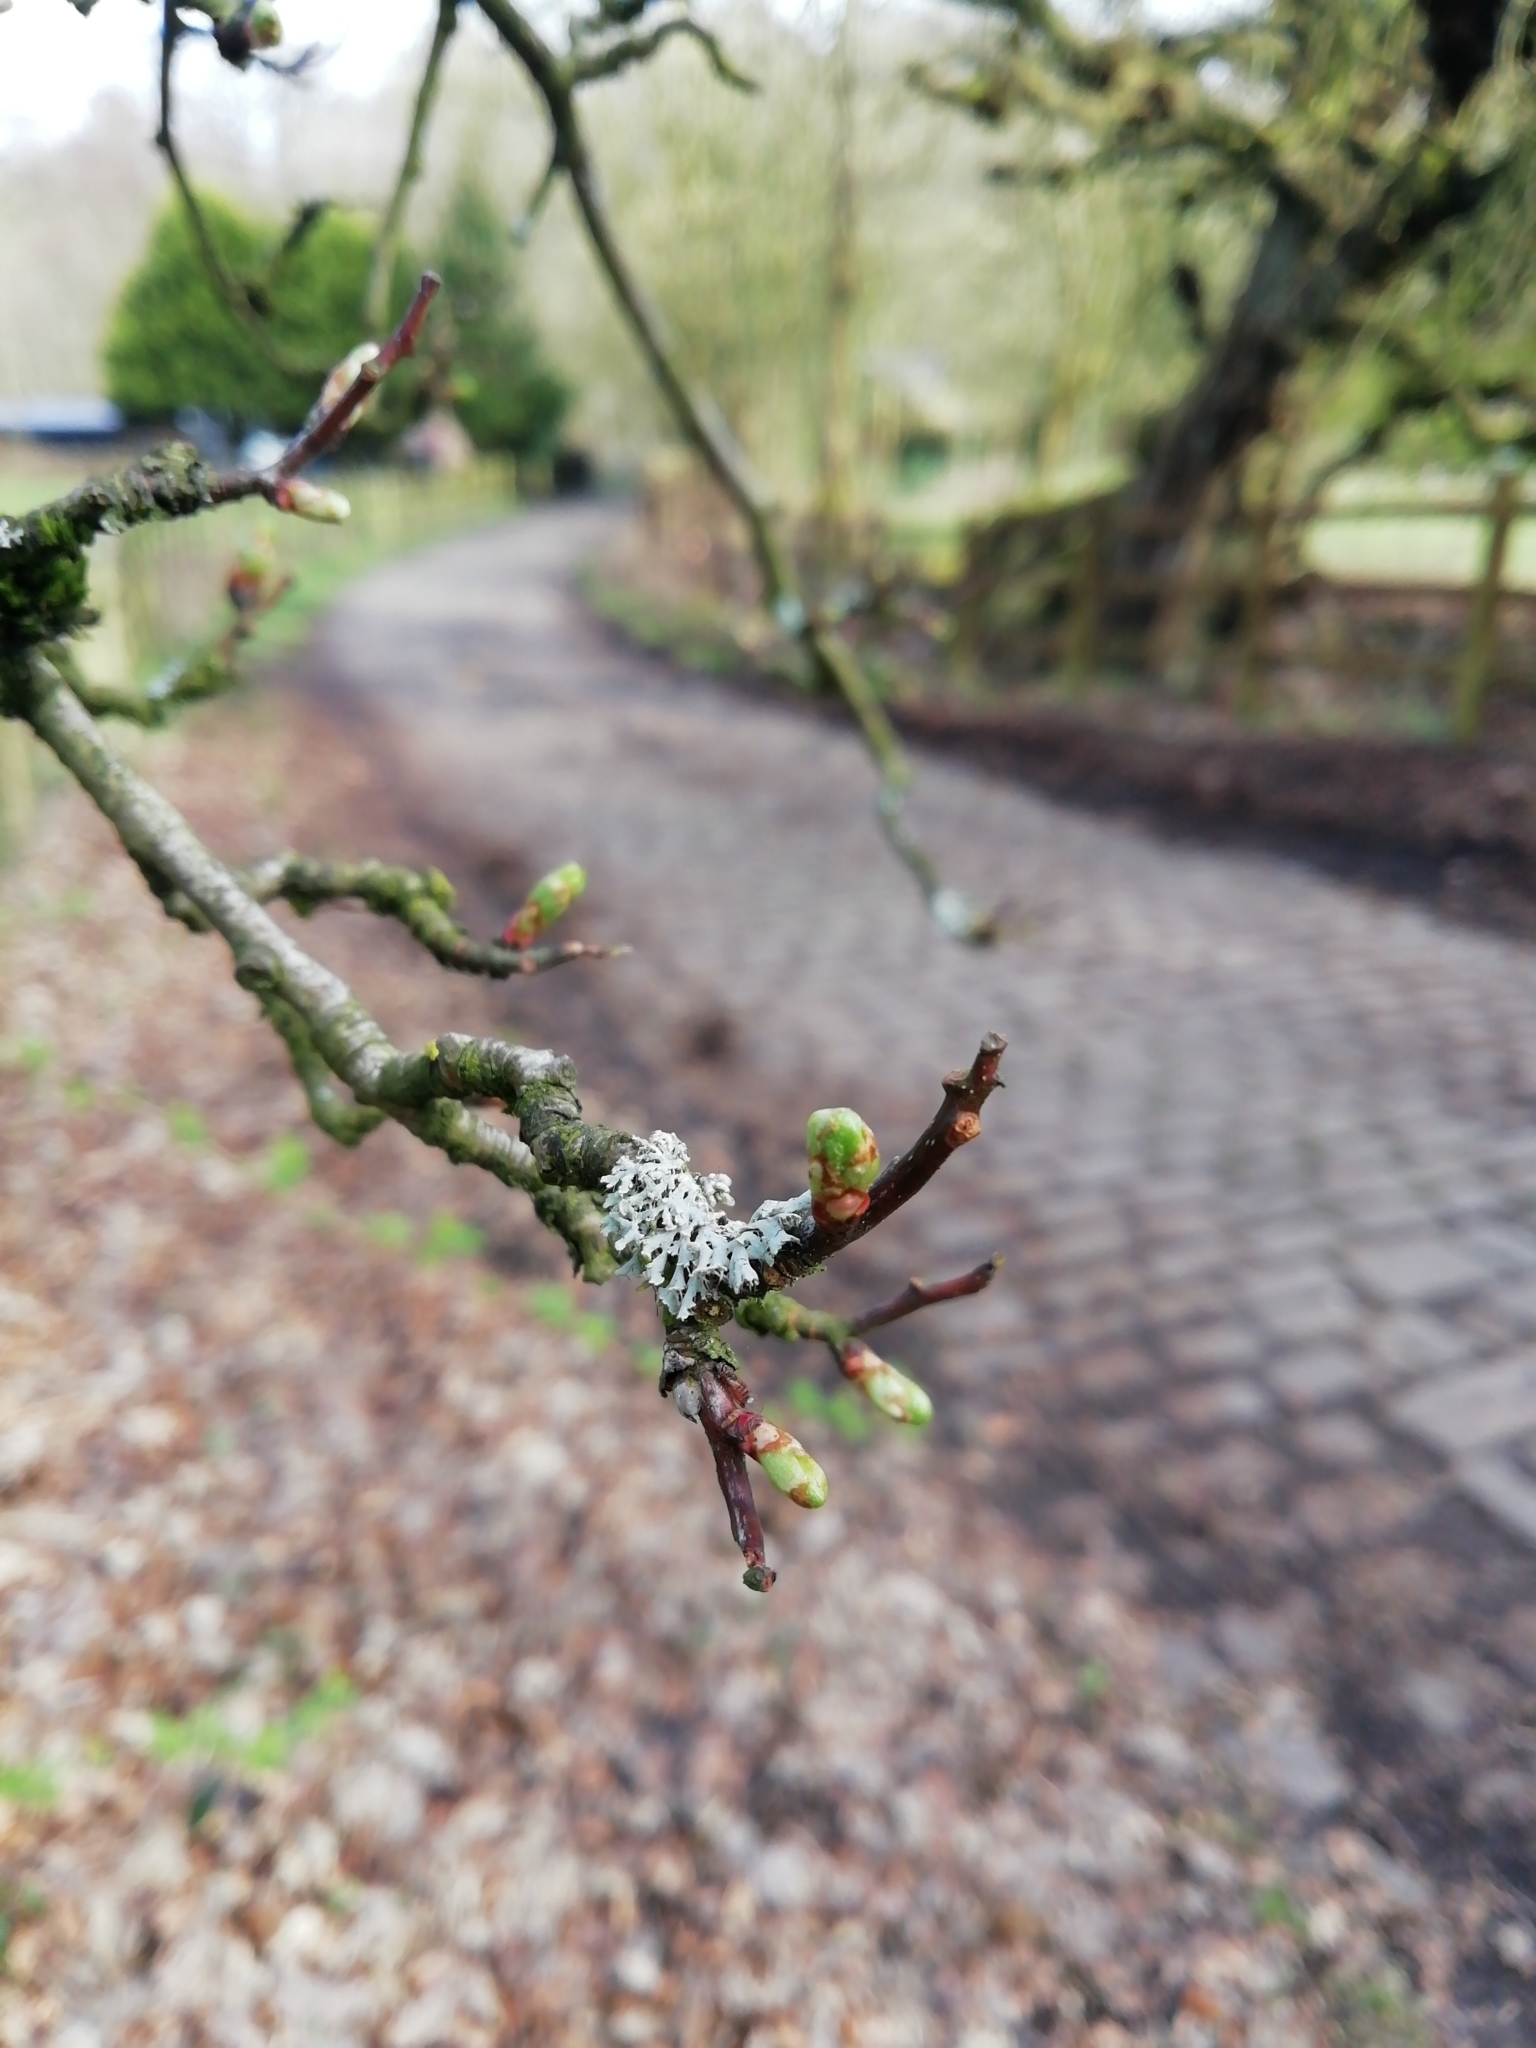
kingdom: Fungi
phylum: Ascomycota
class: Lecanoromycetes
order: Caliciales
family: Physciaceae
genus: Physcia
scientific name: Physcia tenella
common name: Fringed rosette lichen
